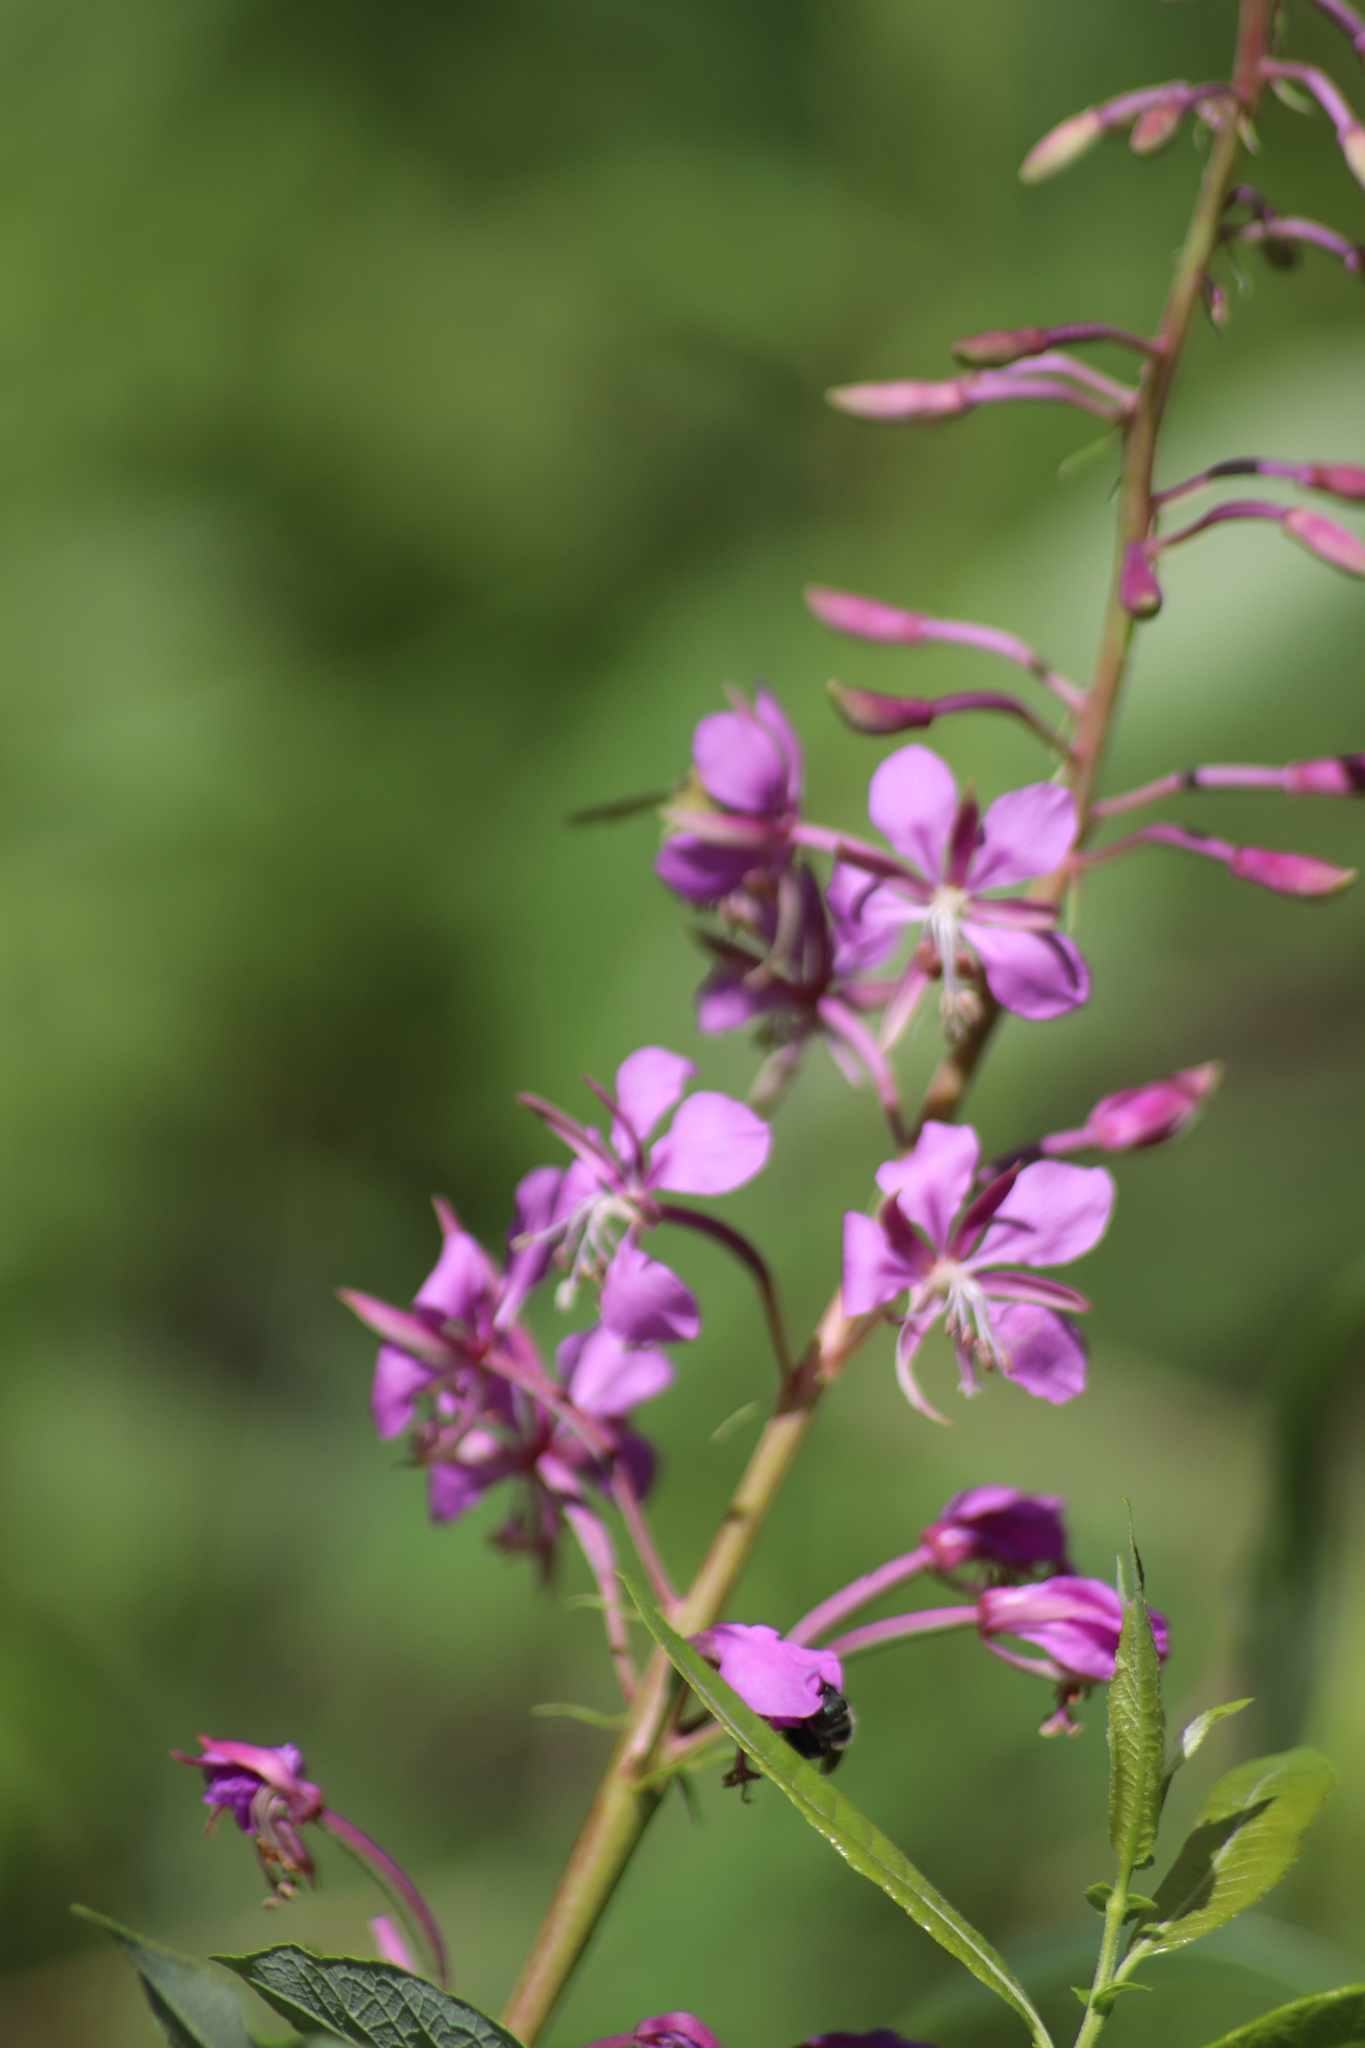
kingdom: Plantae
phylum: Tracheophyta
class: Magnoliopsida
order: Myrtales
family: Onagraceae
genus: Chamaenerion
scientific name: Chamaenerion angustifolium
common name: Fireweed
